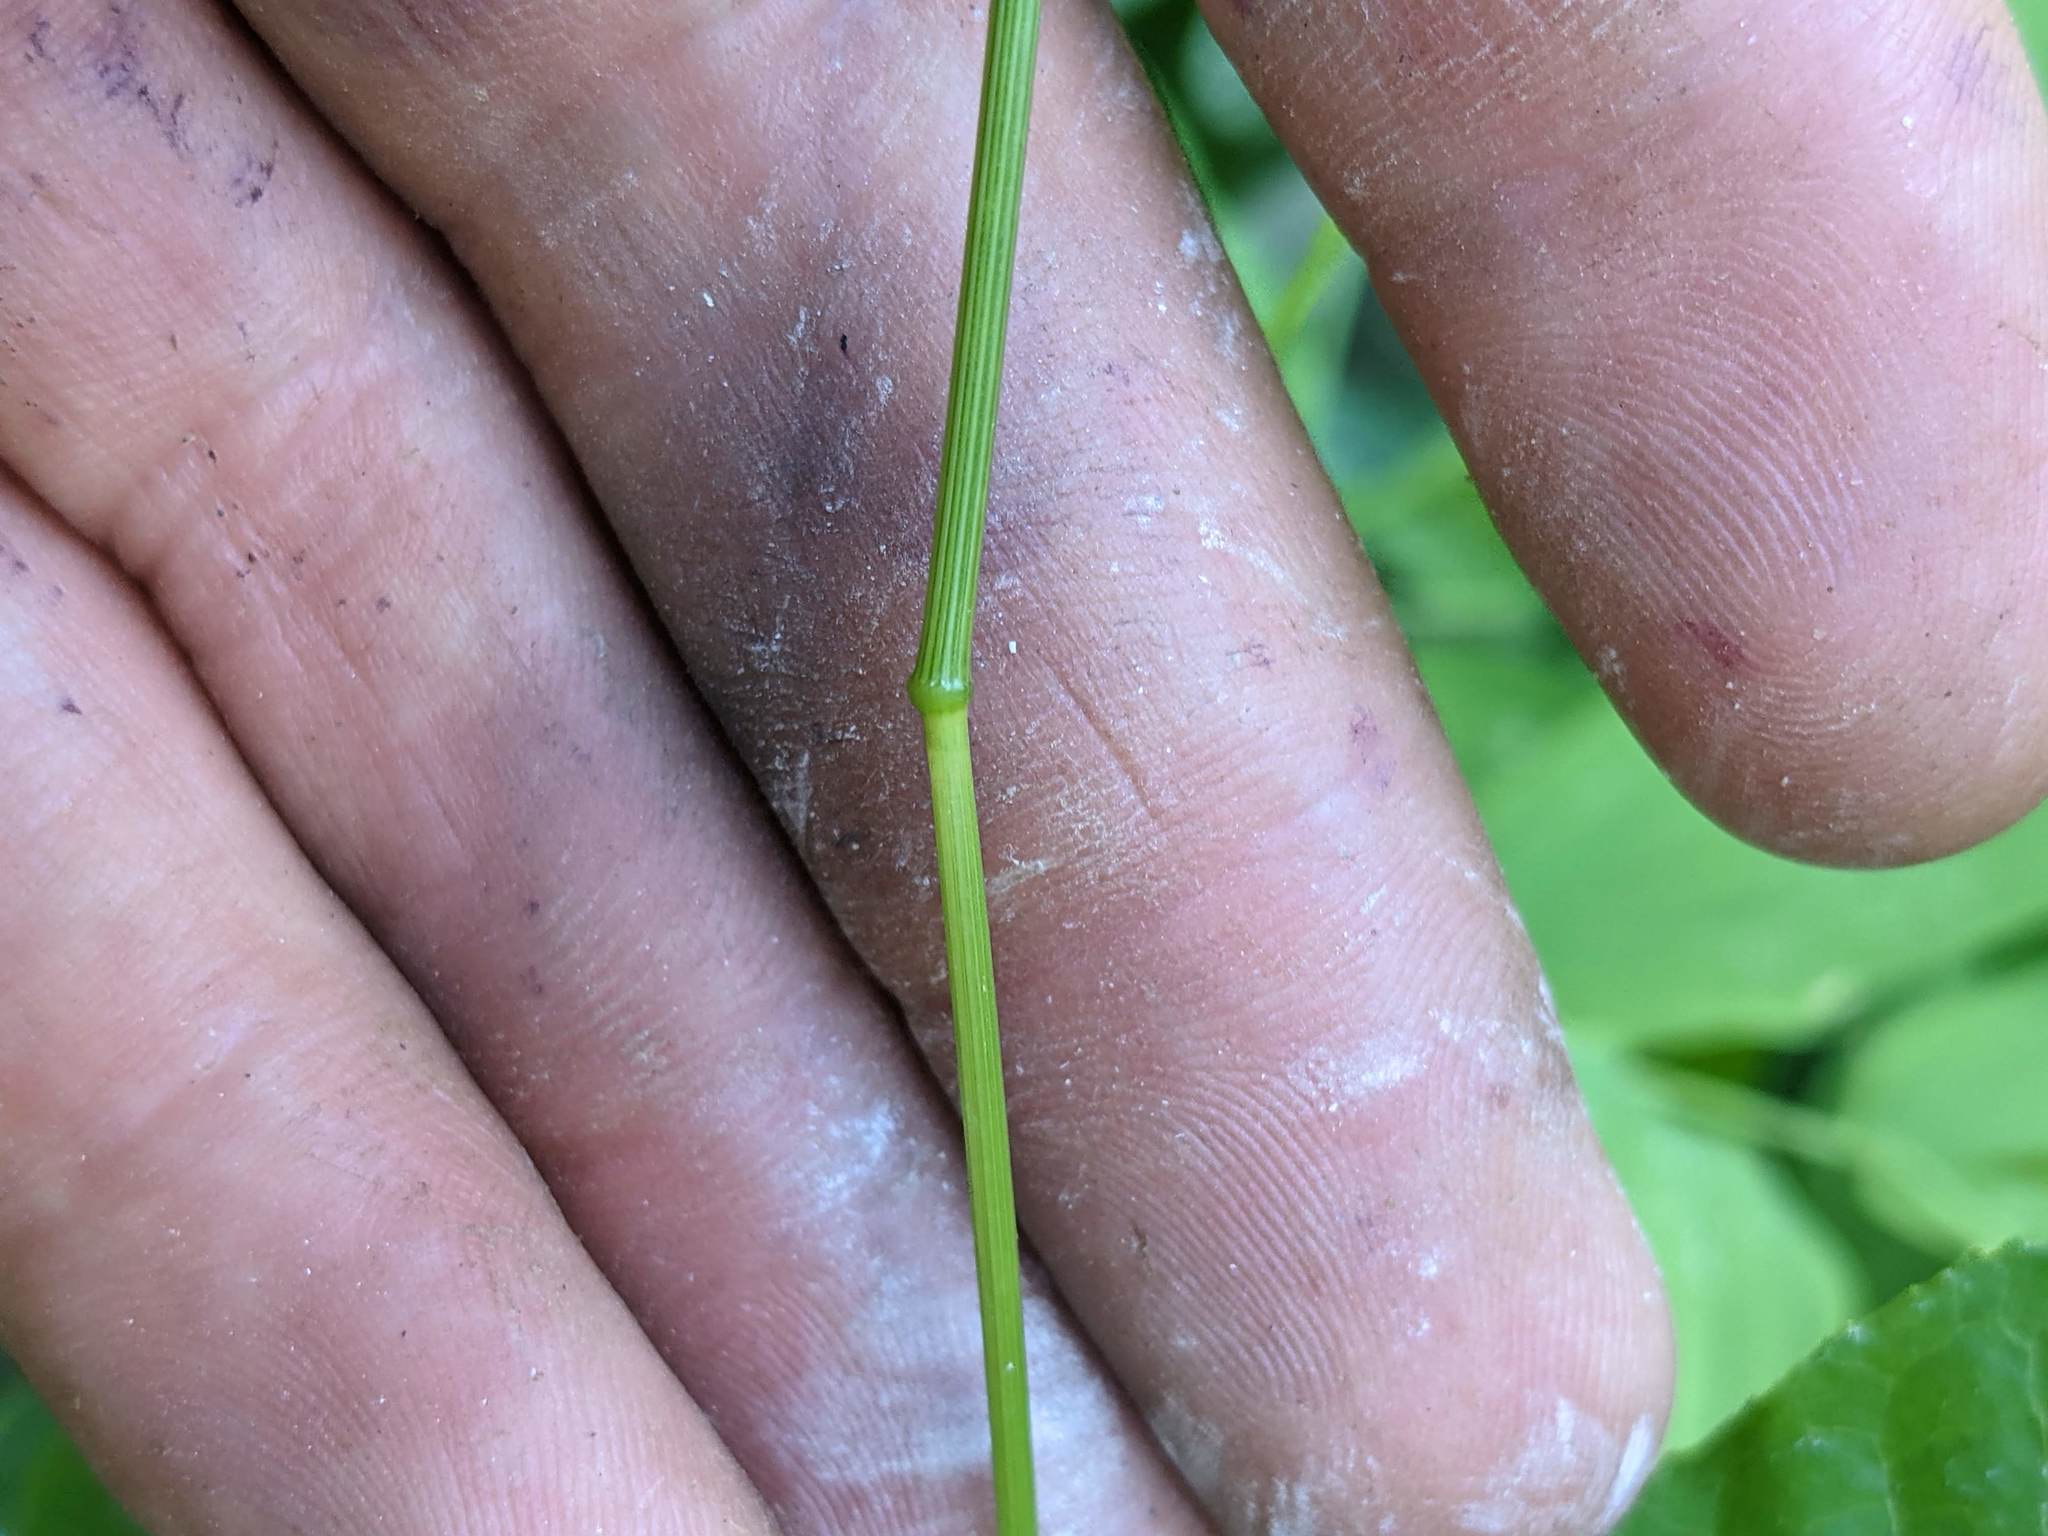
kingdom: Plantae
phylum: Tracheophyta
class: Liliopsida
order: Poales
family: Poaceae
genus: Festuca
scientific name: Festuca subulata
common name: Bearded fescue
